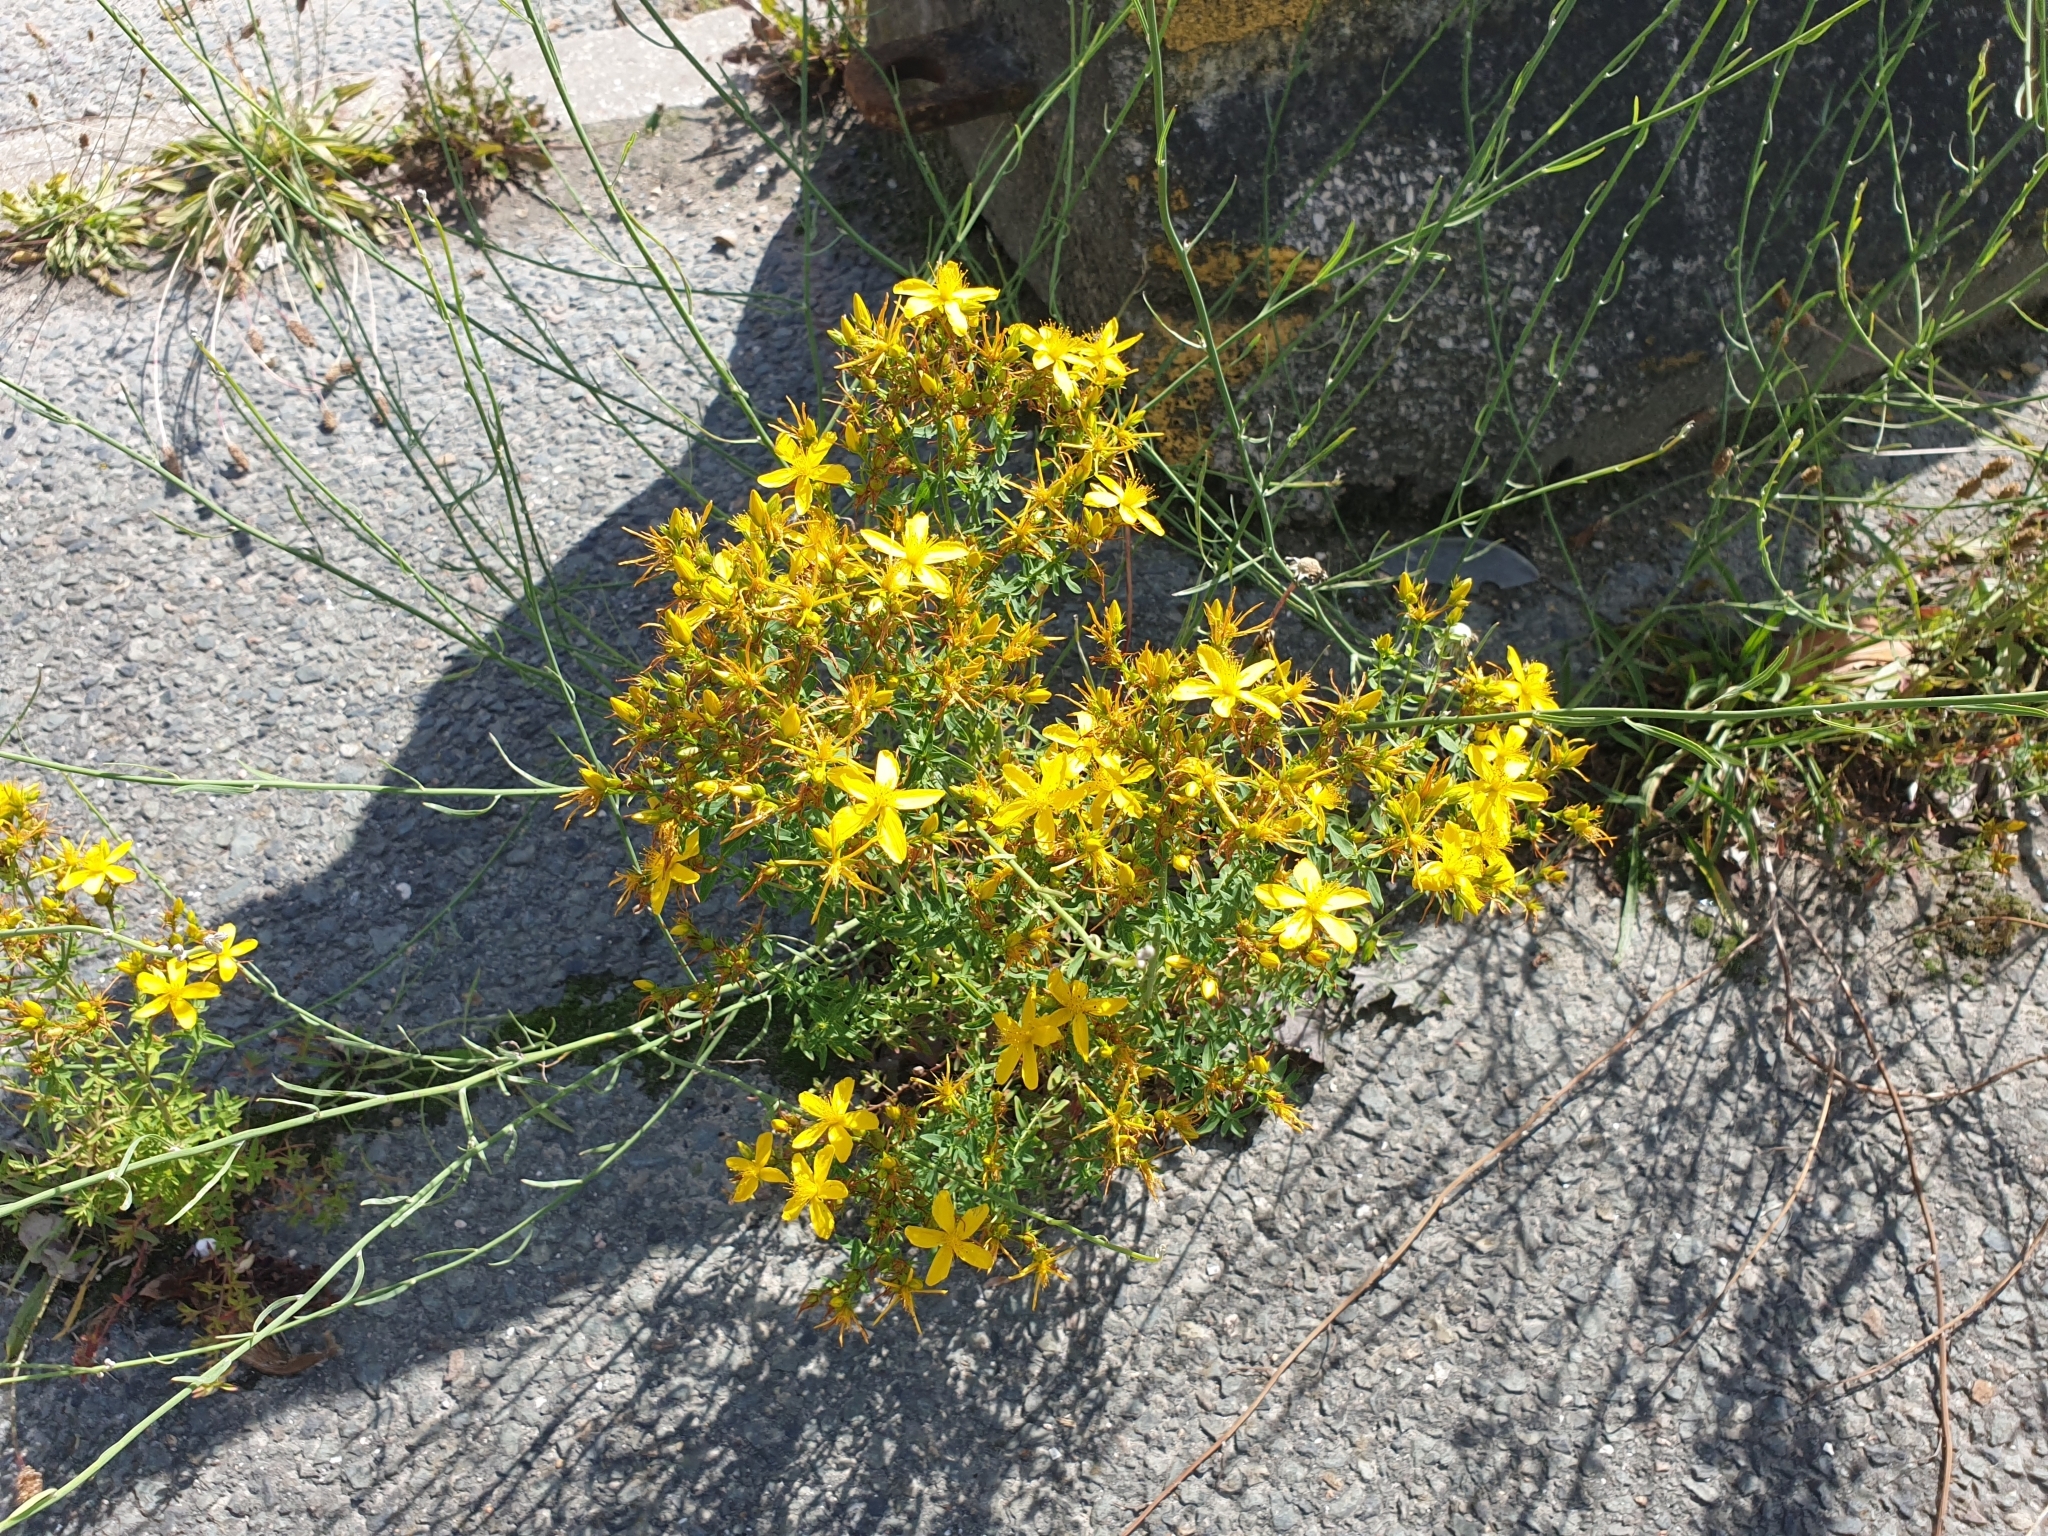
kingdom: Plantae
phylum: Tracheophyta
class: Magnoliopsida
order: Malpighiales
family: Hypericaceae
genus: Hypericum
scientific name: Hypericum perforatum
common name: Common st. johnswort
